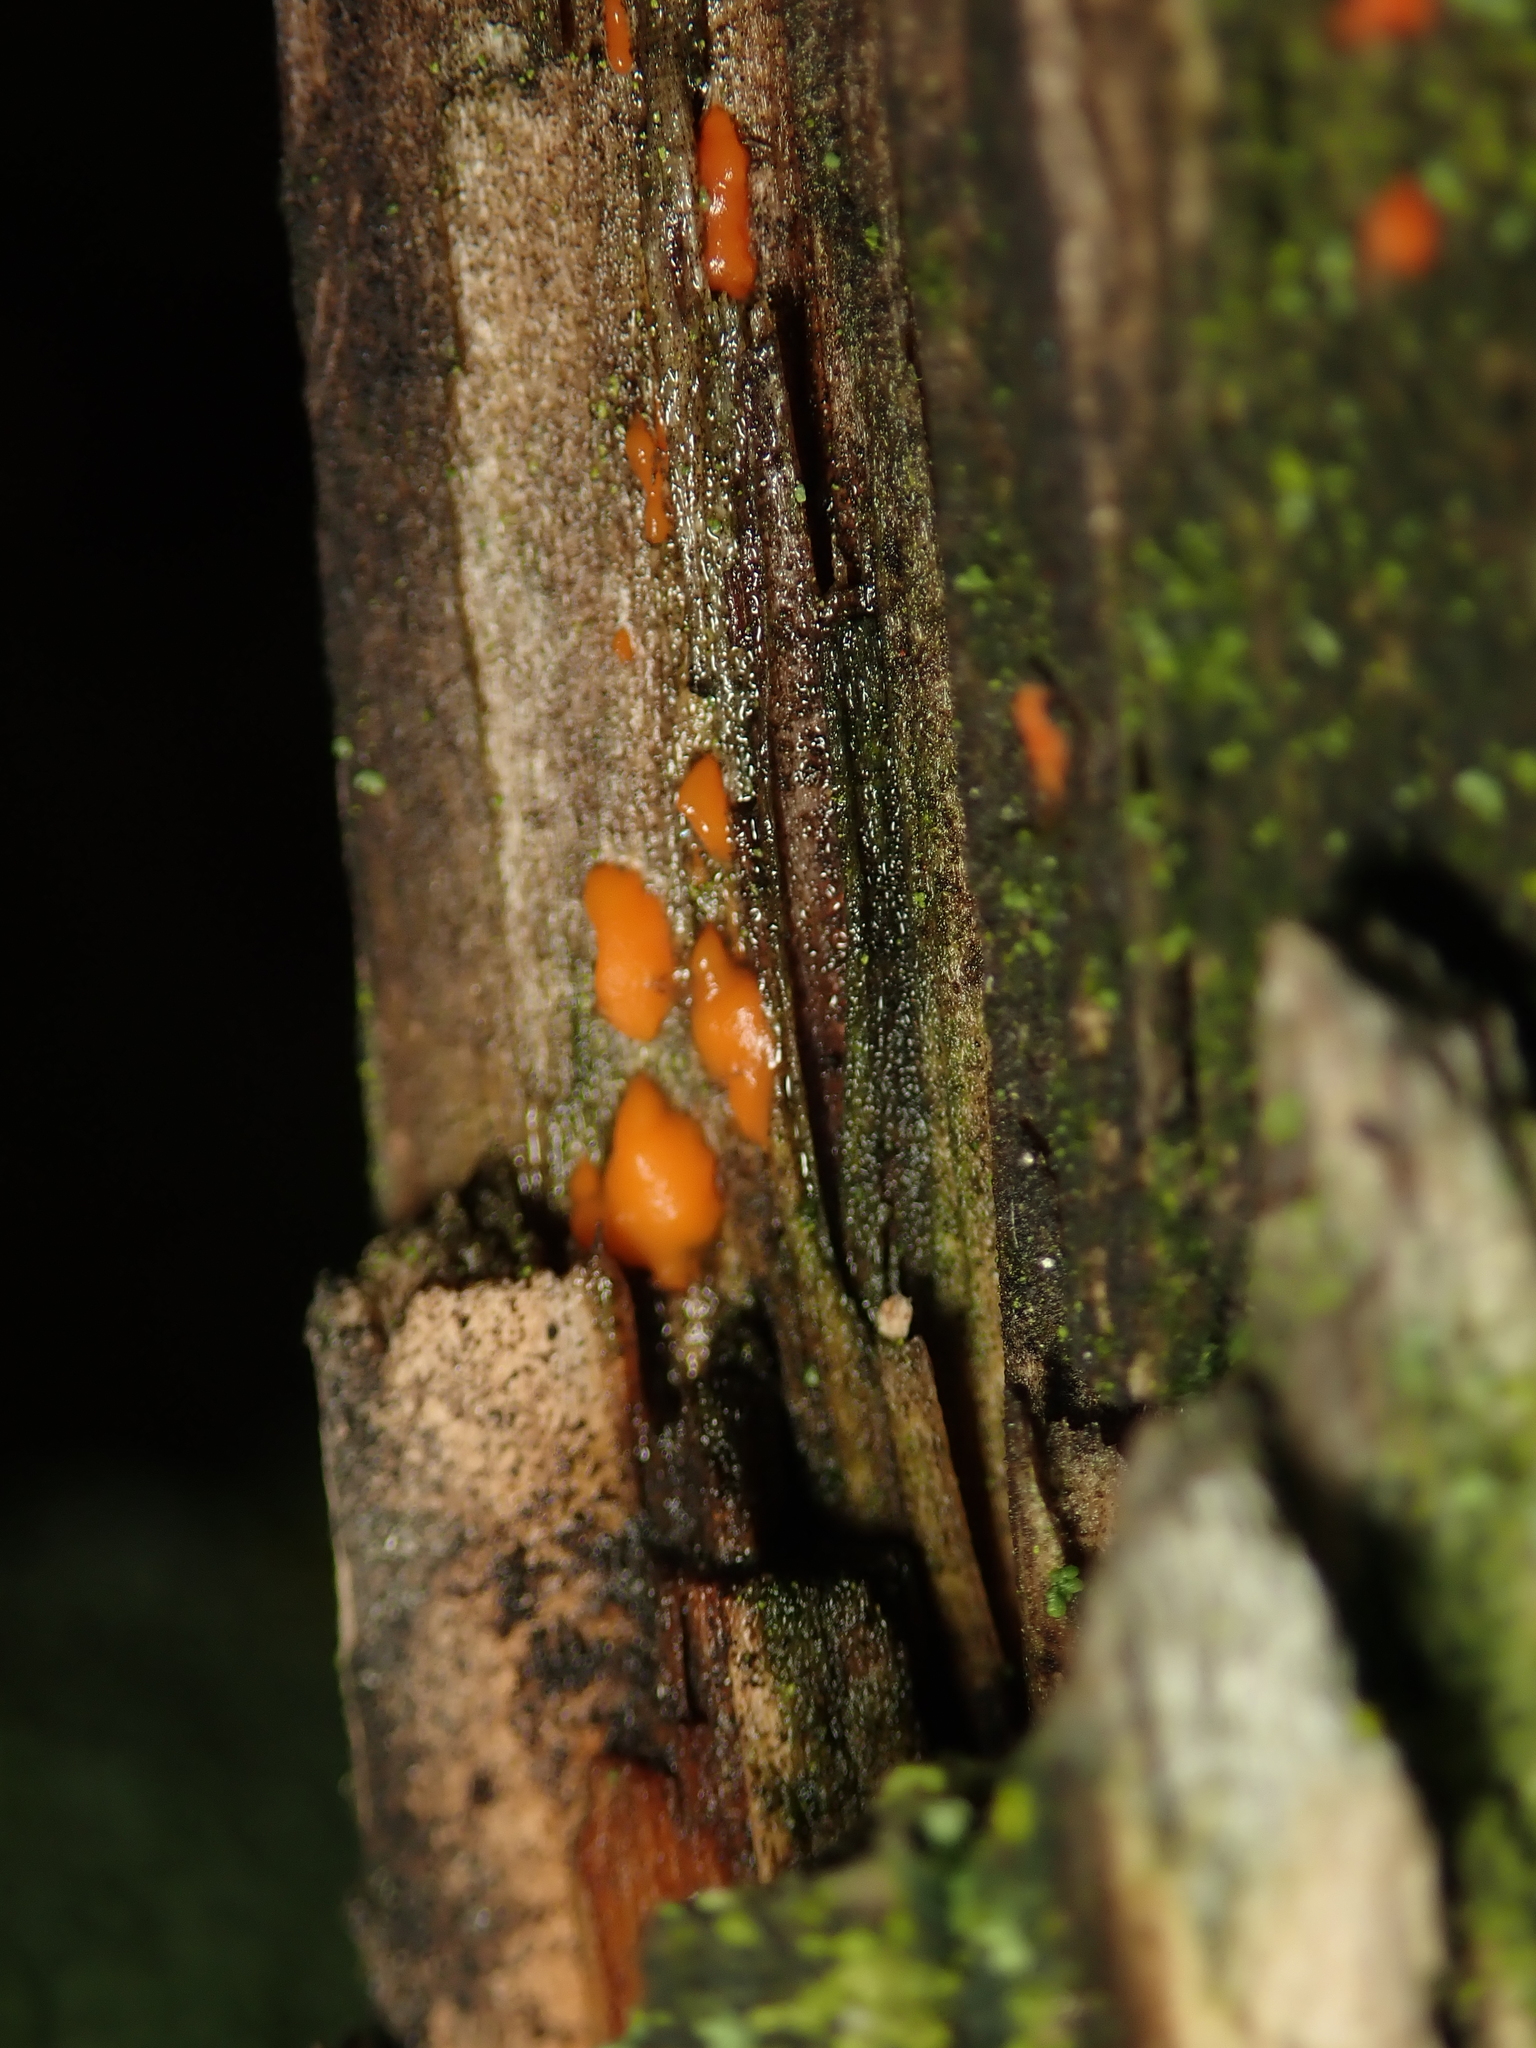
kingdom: Fungi
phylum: Basidiomycota
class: Dacrymycetes
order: Dacrymycetales
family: Dacrymycetaceae
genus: Dacrymyces
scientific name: Dacrymyces stillatus
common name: Common jelly spot
